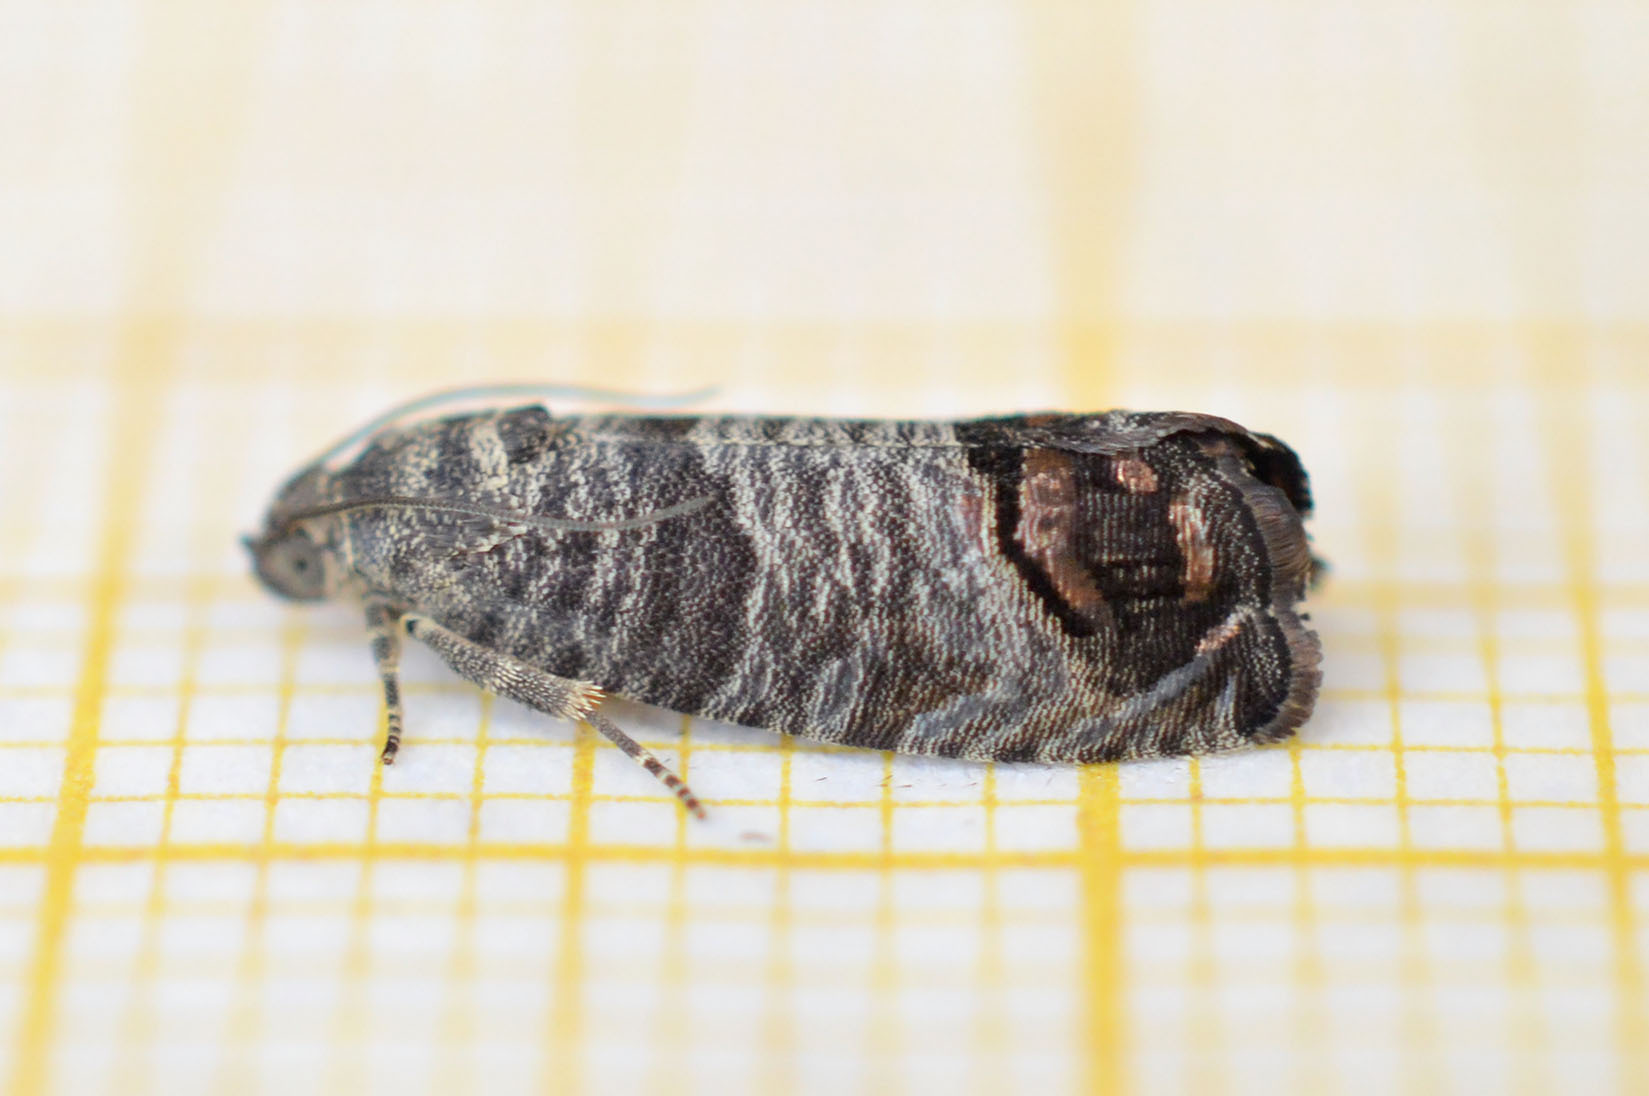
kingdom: Animalia
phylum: Arthropoda
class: Insecta
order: Lepidoptera
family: Tortricidae
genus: Cydia
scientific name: Cydia pomonella
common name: Codling moth
